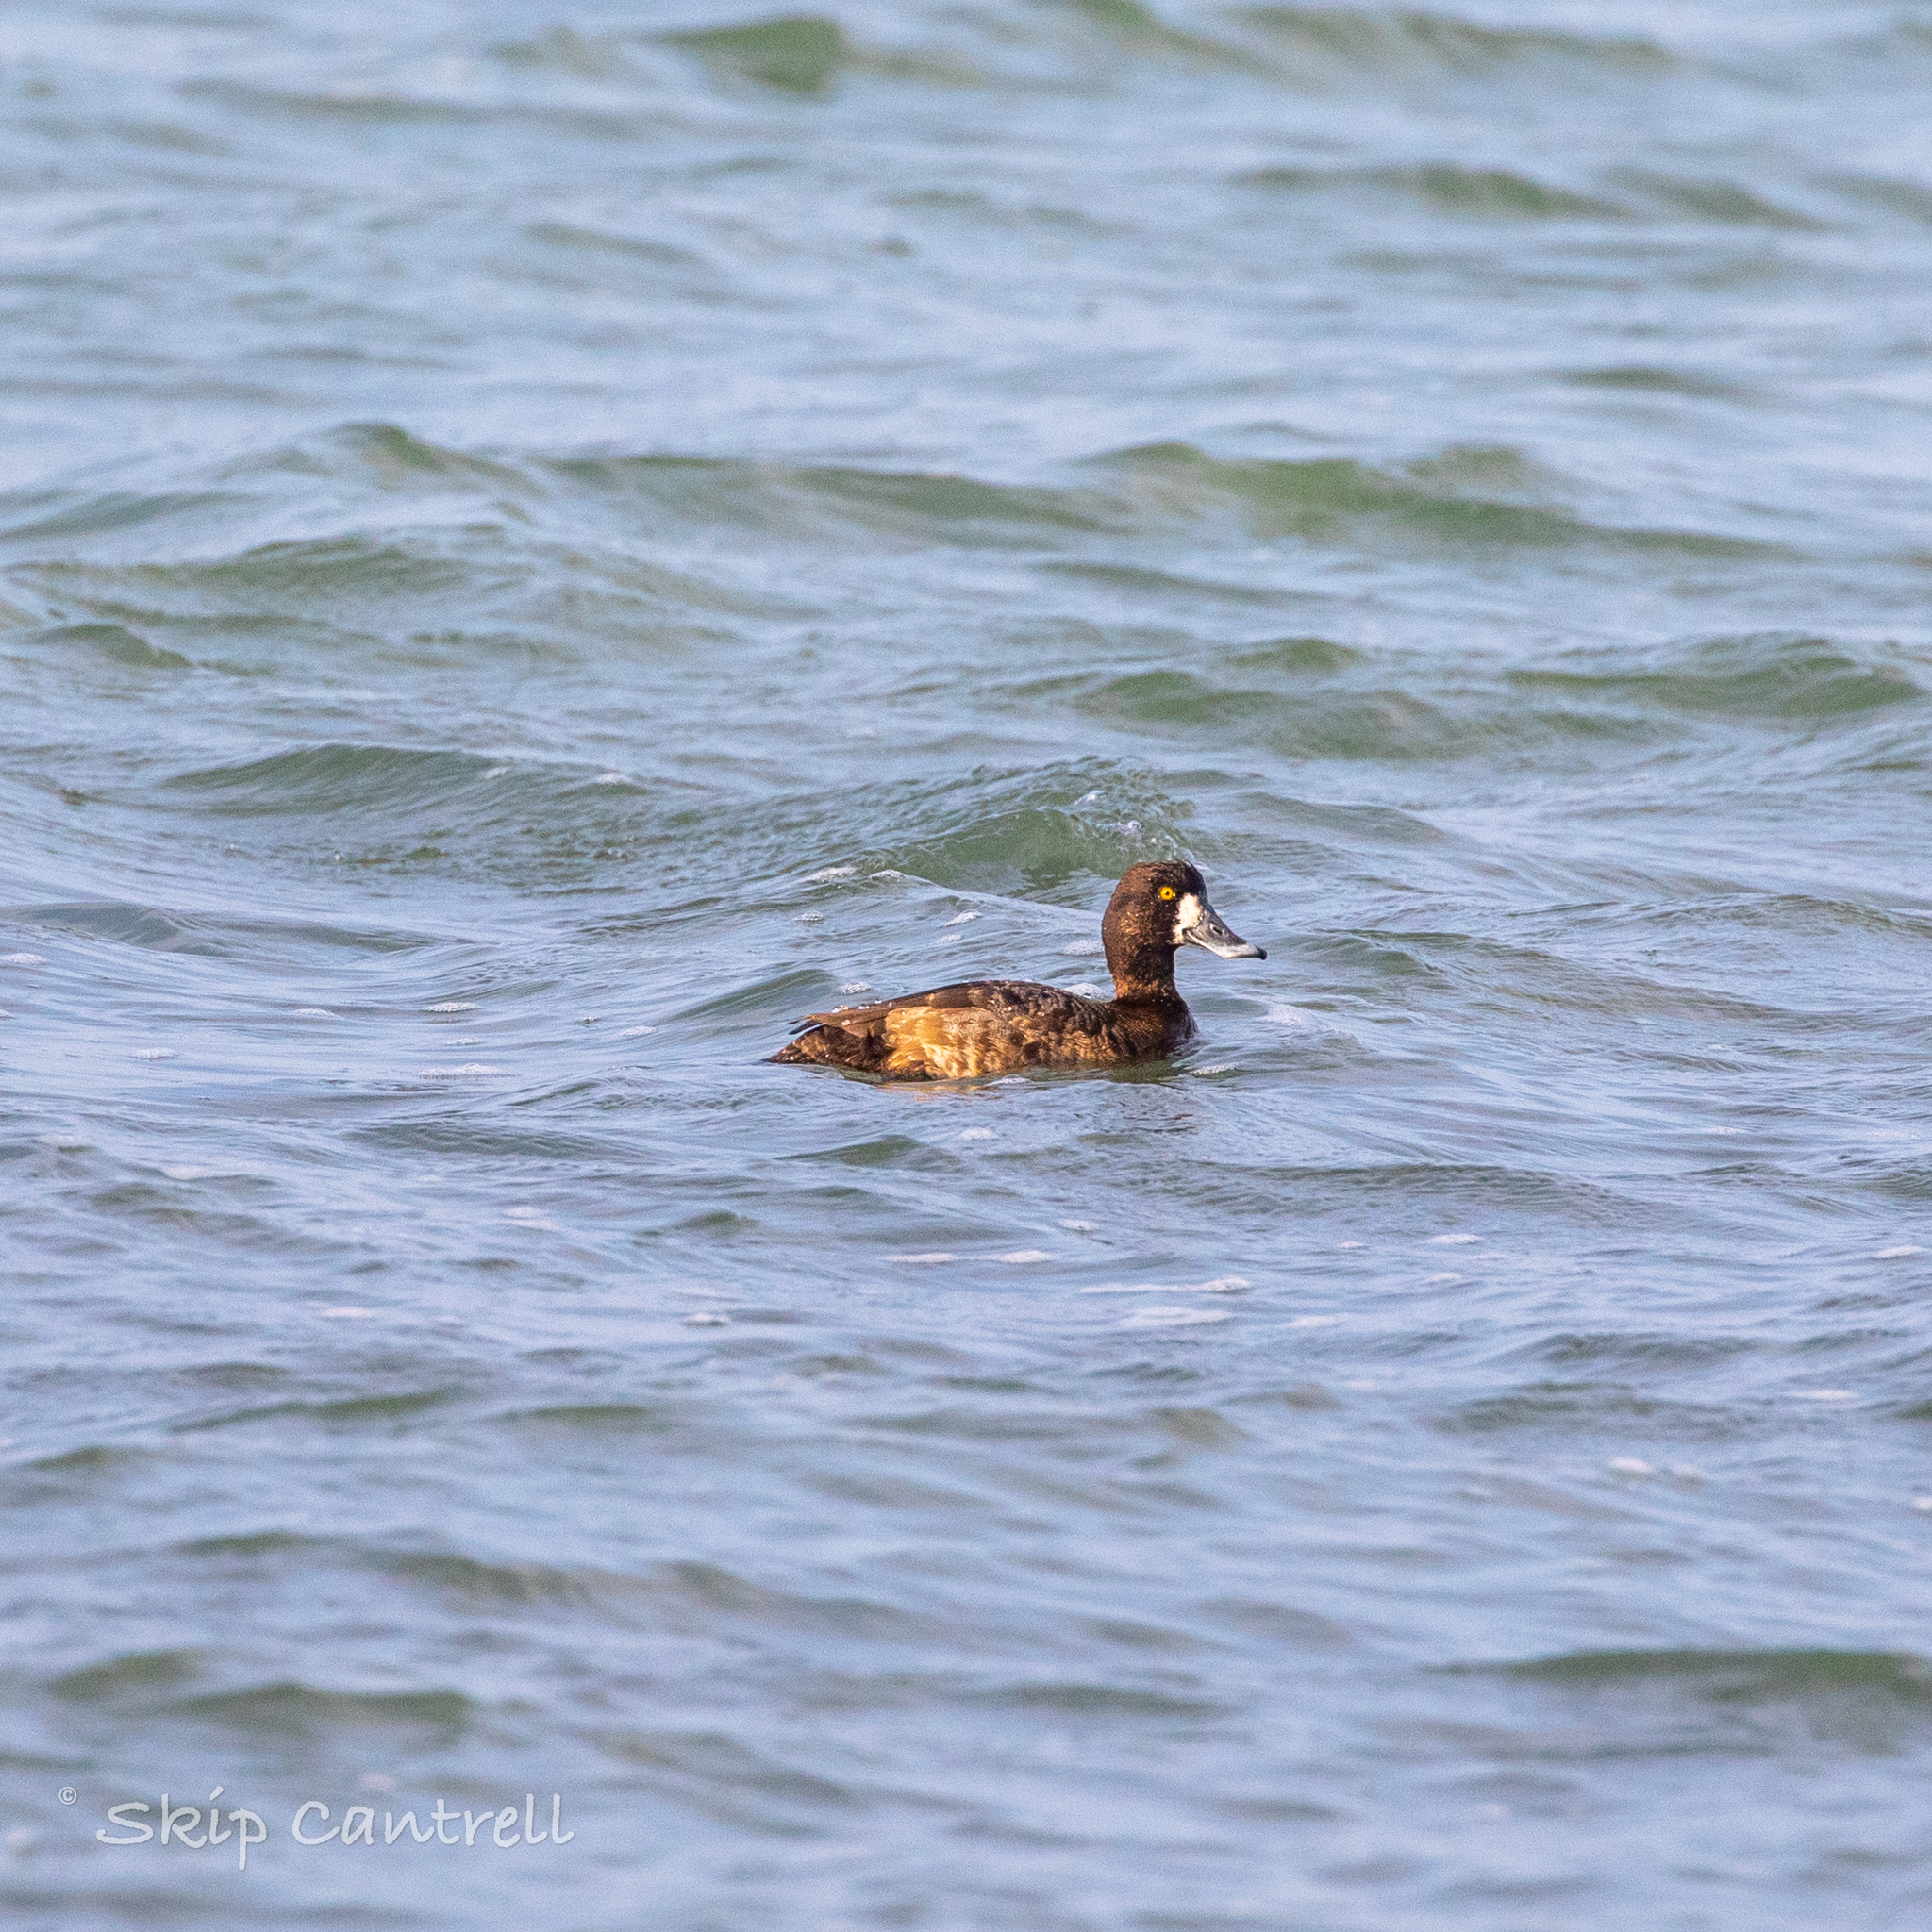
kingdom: Animalia
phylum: Chordata
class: Aves
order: Anseriformes
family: Anatidae
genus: Aythya
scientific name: Aythya marila
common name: Greater scaup
